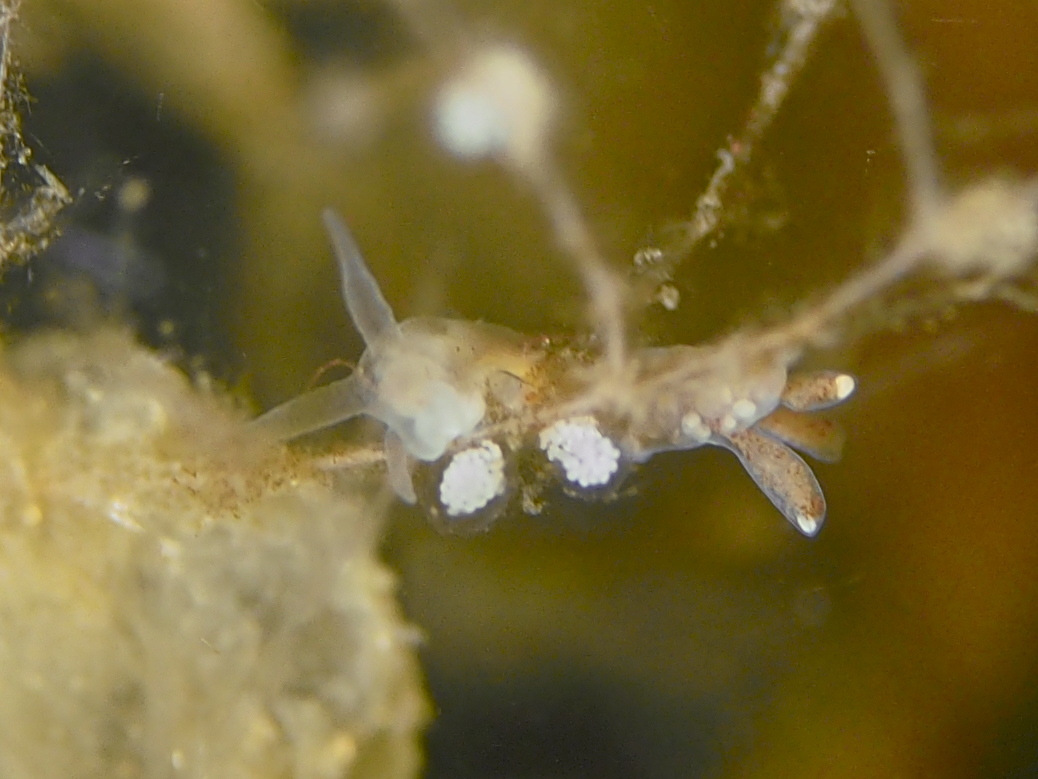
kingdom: Animalia
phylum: Mollusca
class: Gastropoda
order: Nudibranchia
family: Tergipedidae
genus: Tergipes
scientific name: Tergipes tergipes
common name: Johnston's balloon eolis
